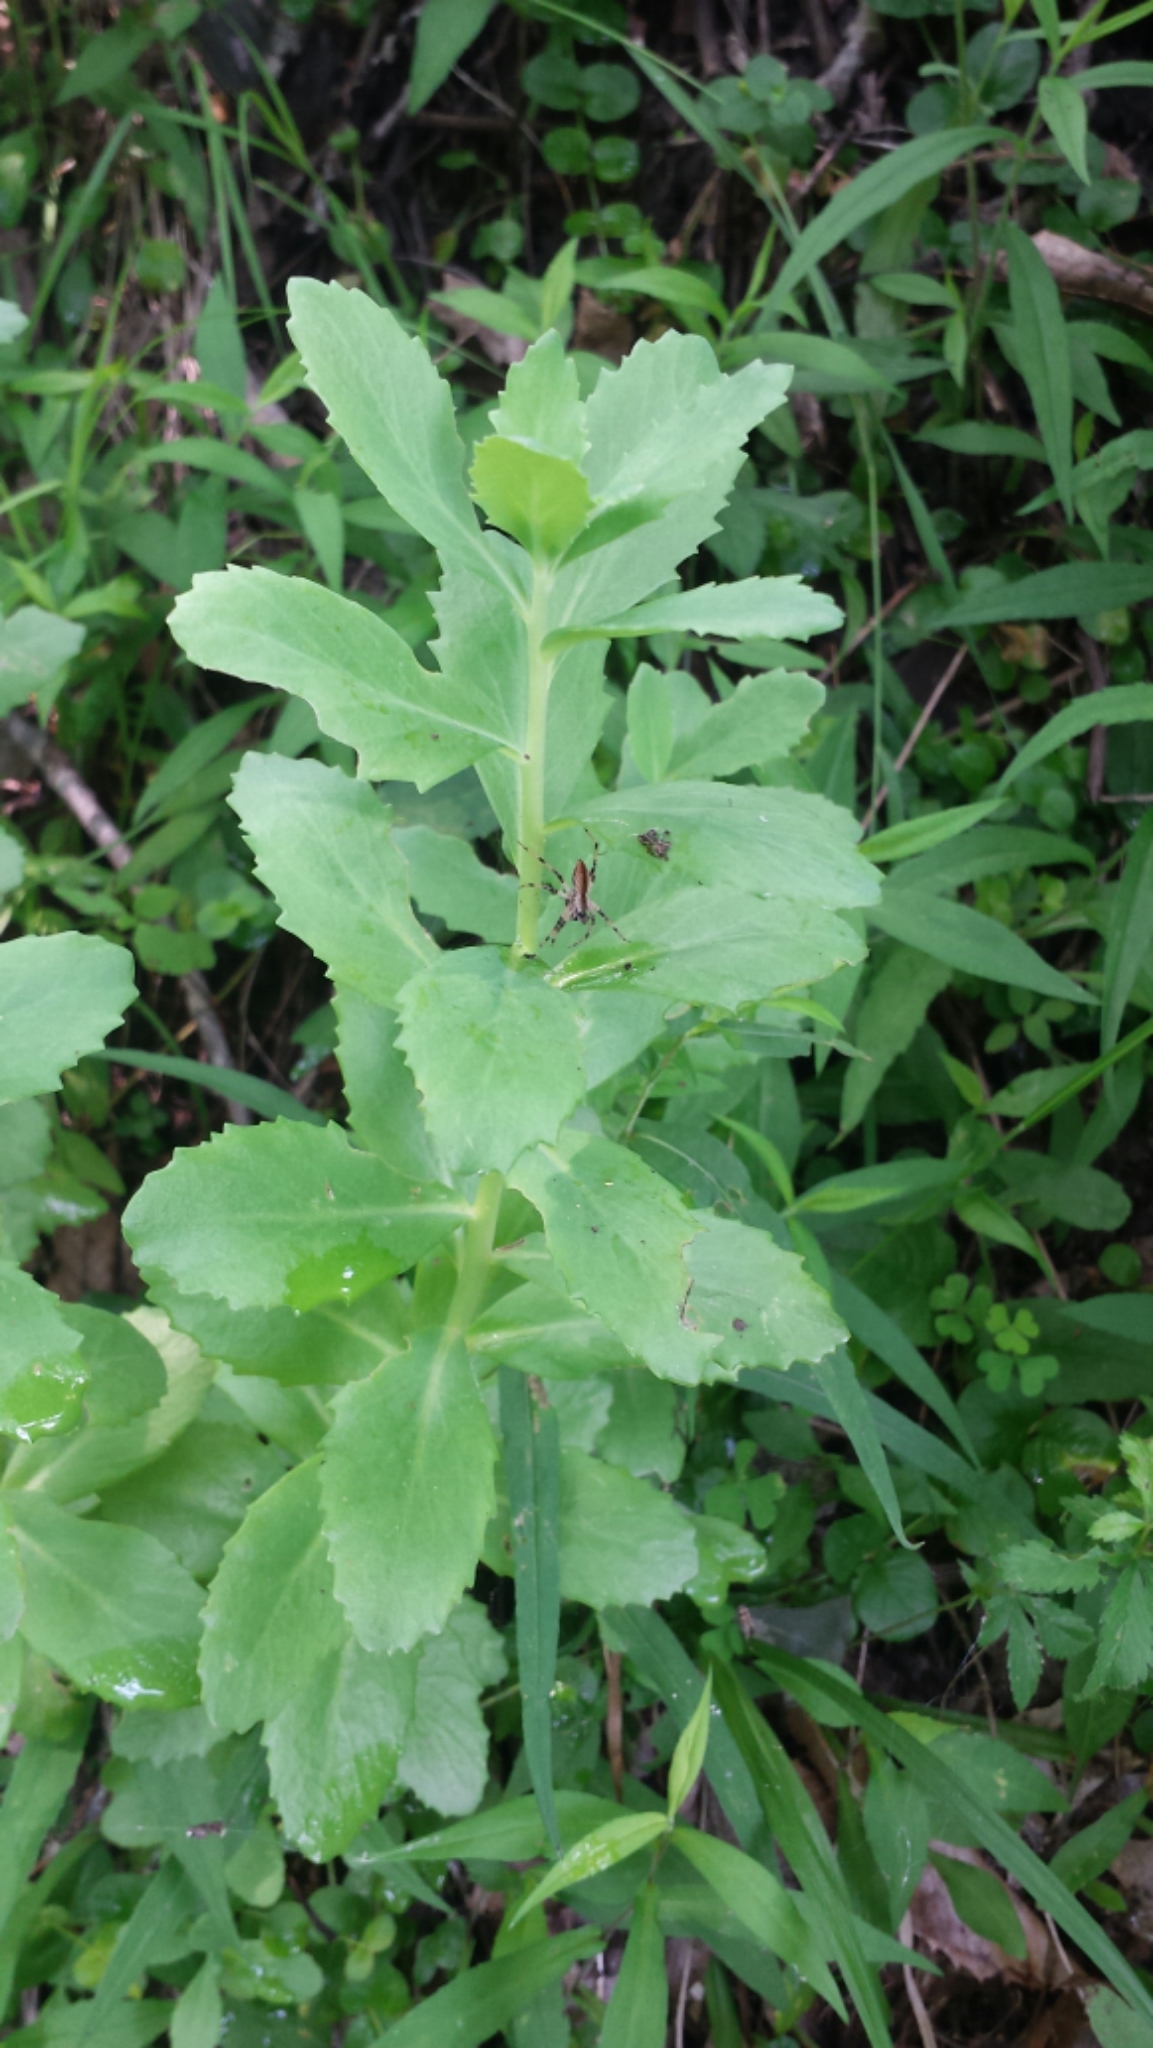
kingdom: Plantae
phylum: Tracheophyta
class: Magnoliopsida
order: Saxifragales
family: Crassulaceae
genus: Hylotelephium
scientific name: Hylotelephium telephium
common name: Live-forever
